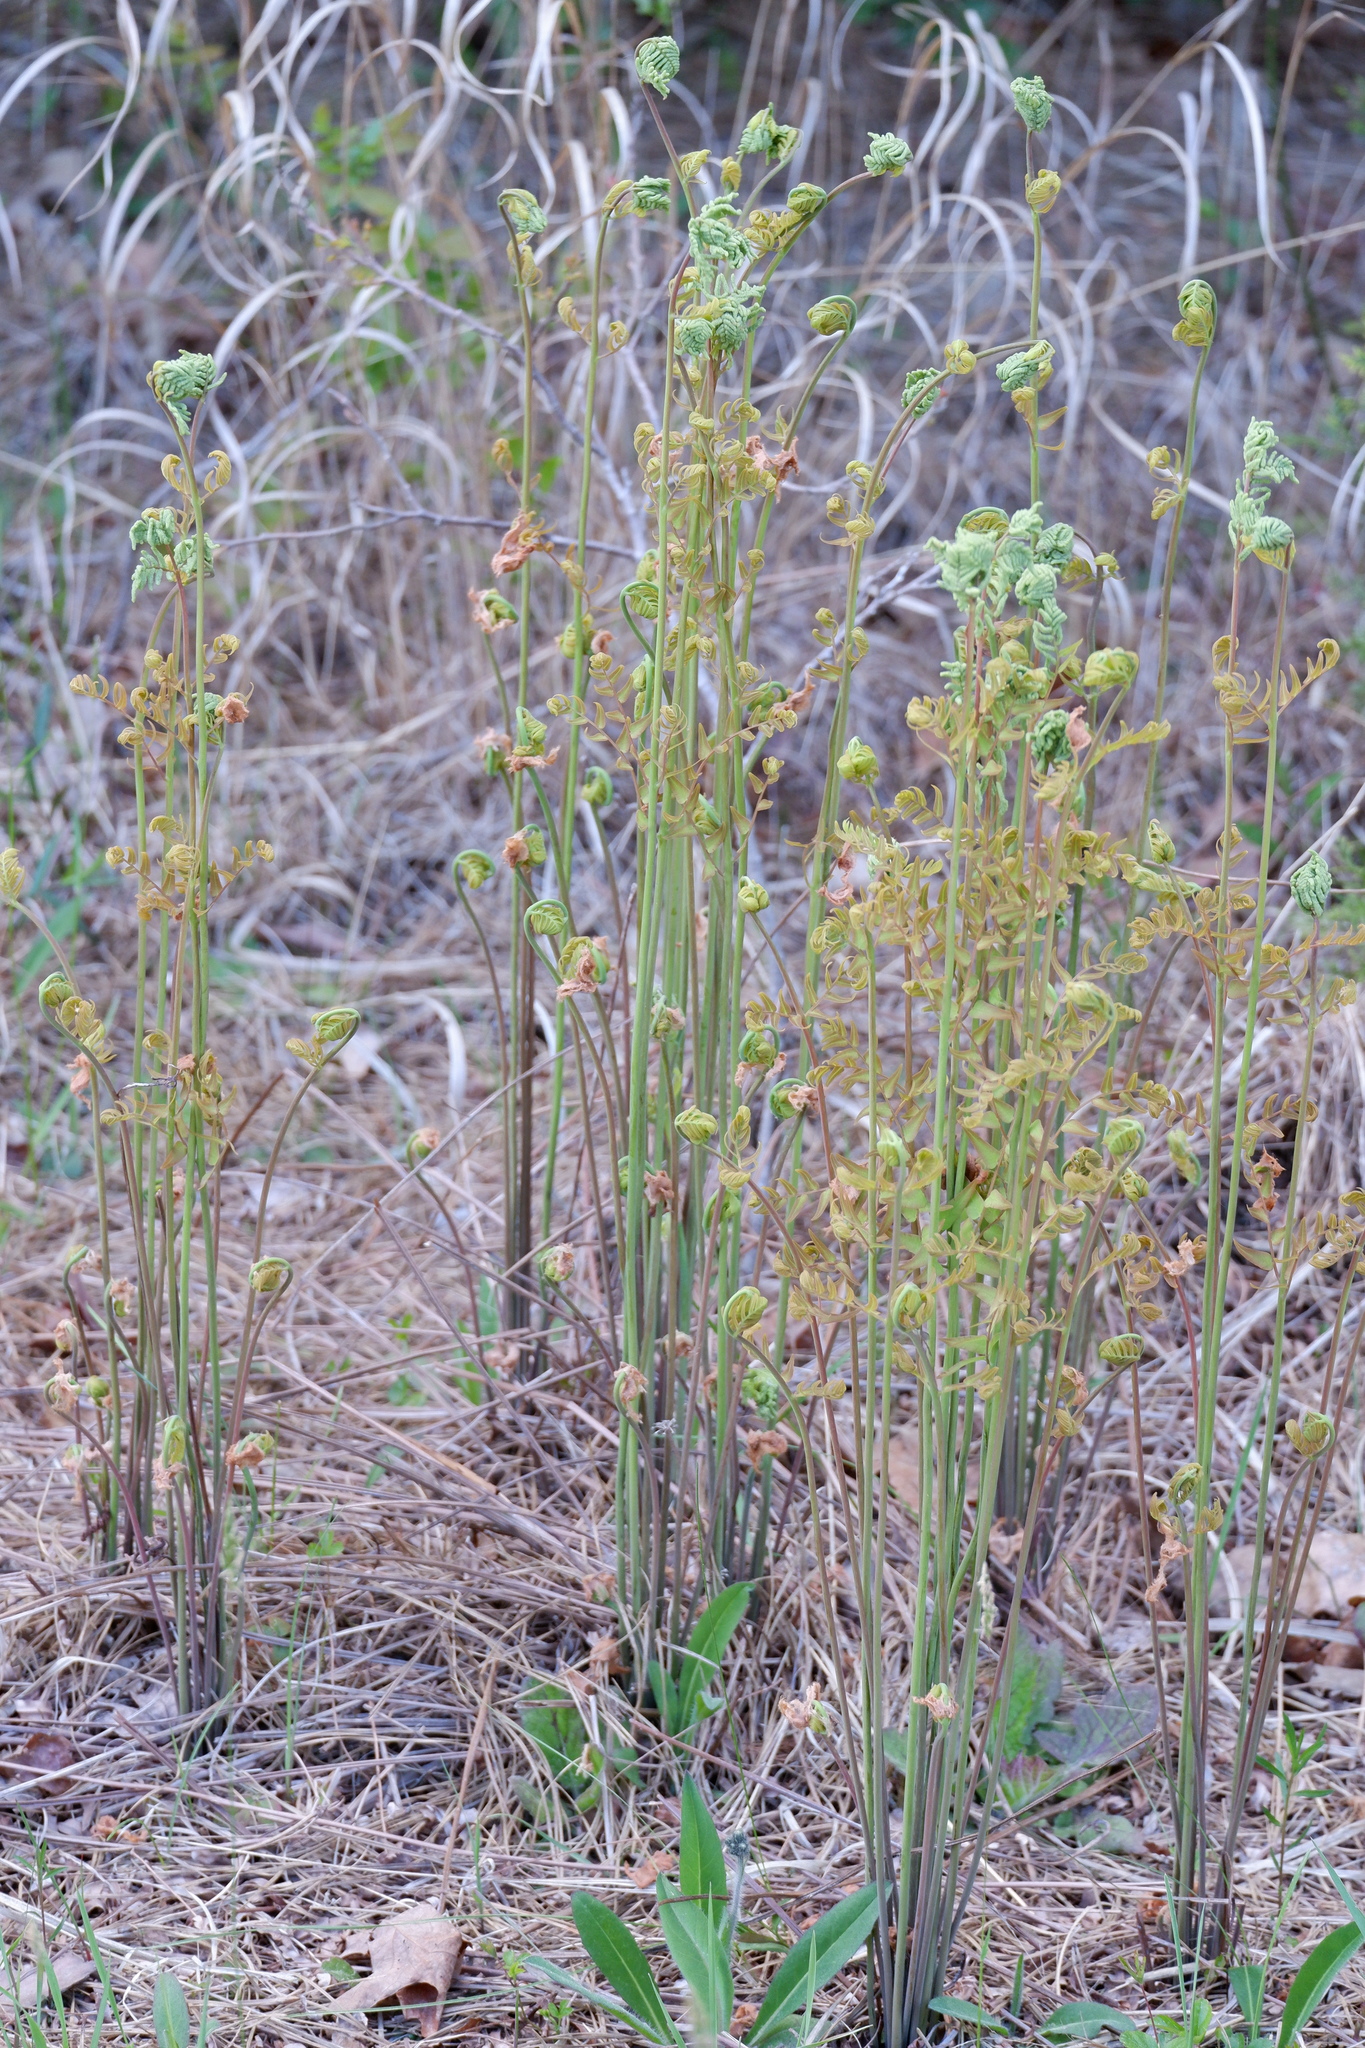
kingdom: Plantae
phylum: Tracheophyta
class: Polypodiopsida
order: Osmundales
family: Osmundaceae
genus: Osmunda
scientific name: Osmunda spectabilis
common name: American royal fern
